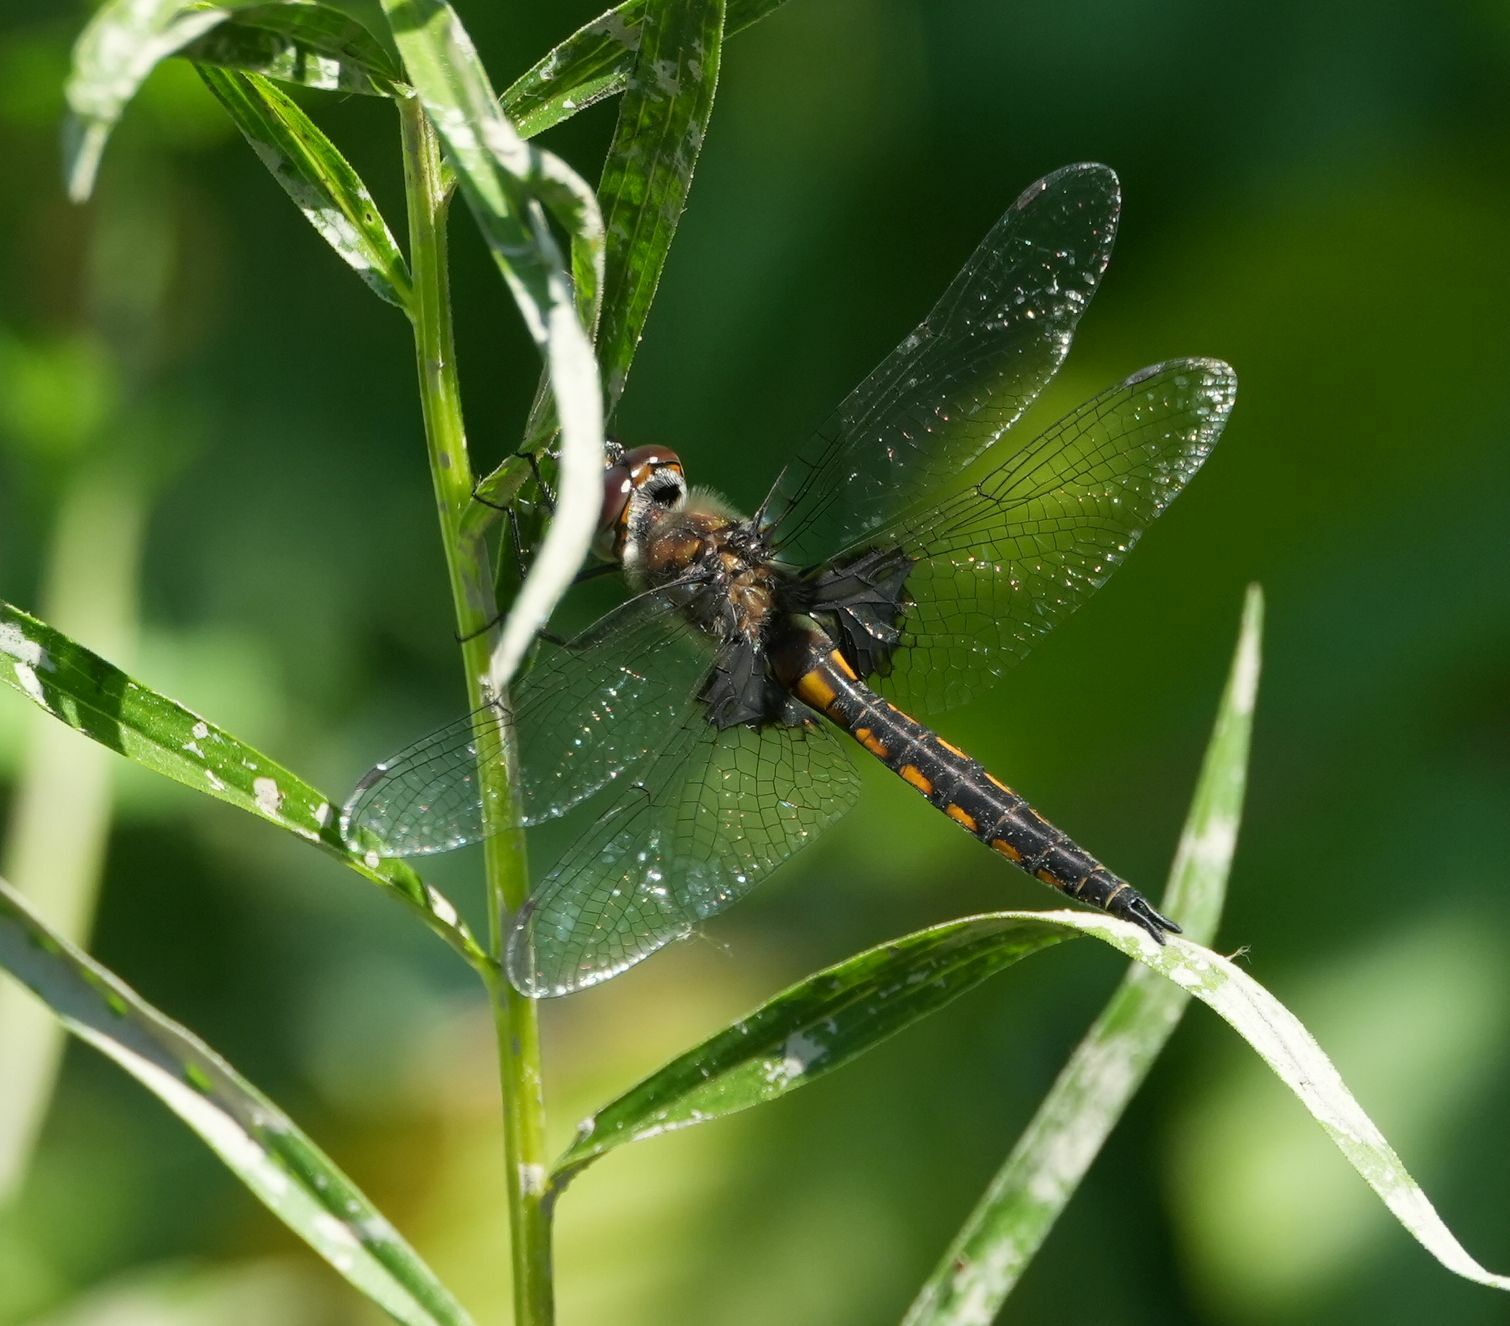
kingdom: Animalia
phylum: Arthropoda
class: Insecta
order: Odonata
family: Corduliidae
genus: Epitheca
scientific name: Epitheca cynosura
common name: Common baskettail
